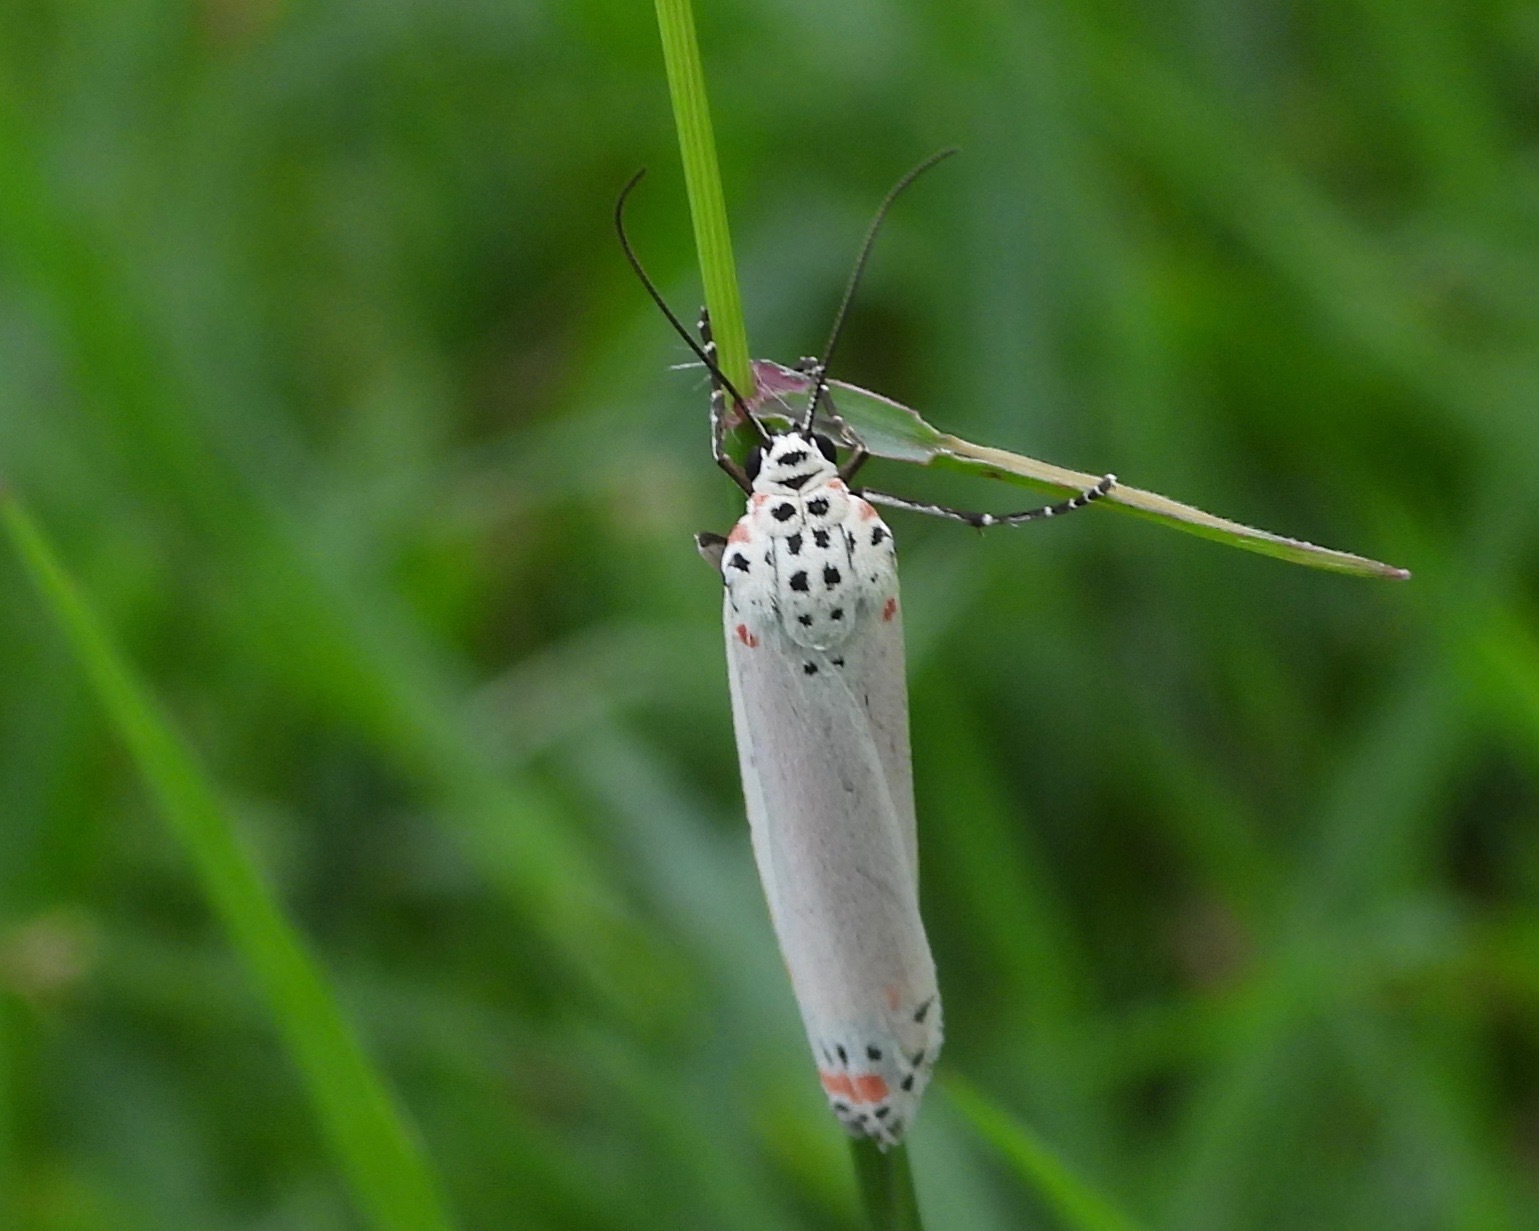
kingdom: Animalia
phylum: Arthropoda
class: Insecta
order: Lepidoptera
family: Erebidae
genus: Utetheisa
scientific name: Utetheisa ornatrix
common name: Beautiful utetheisa
